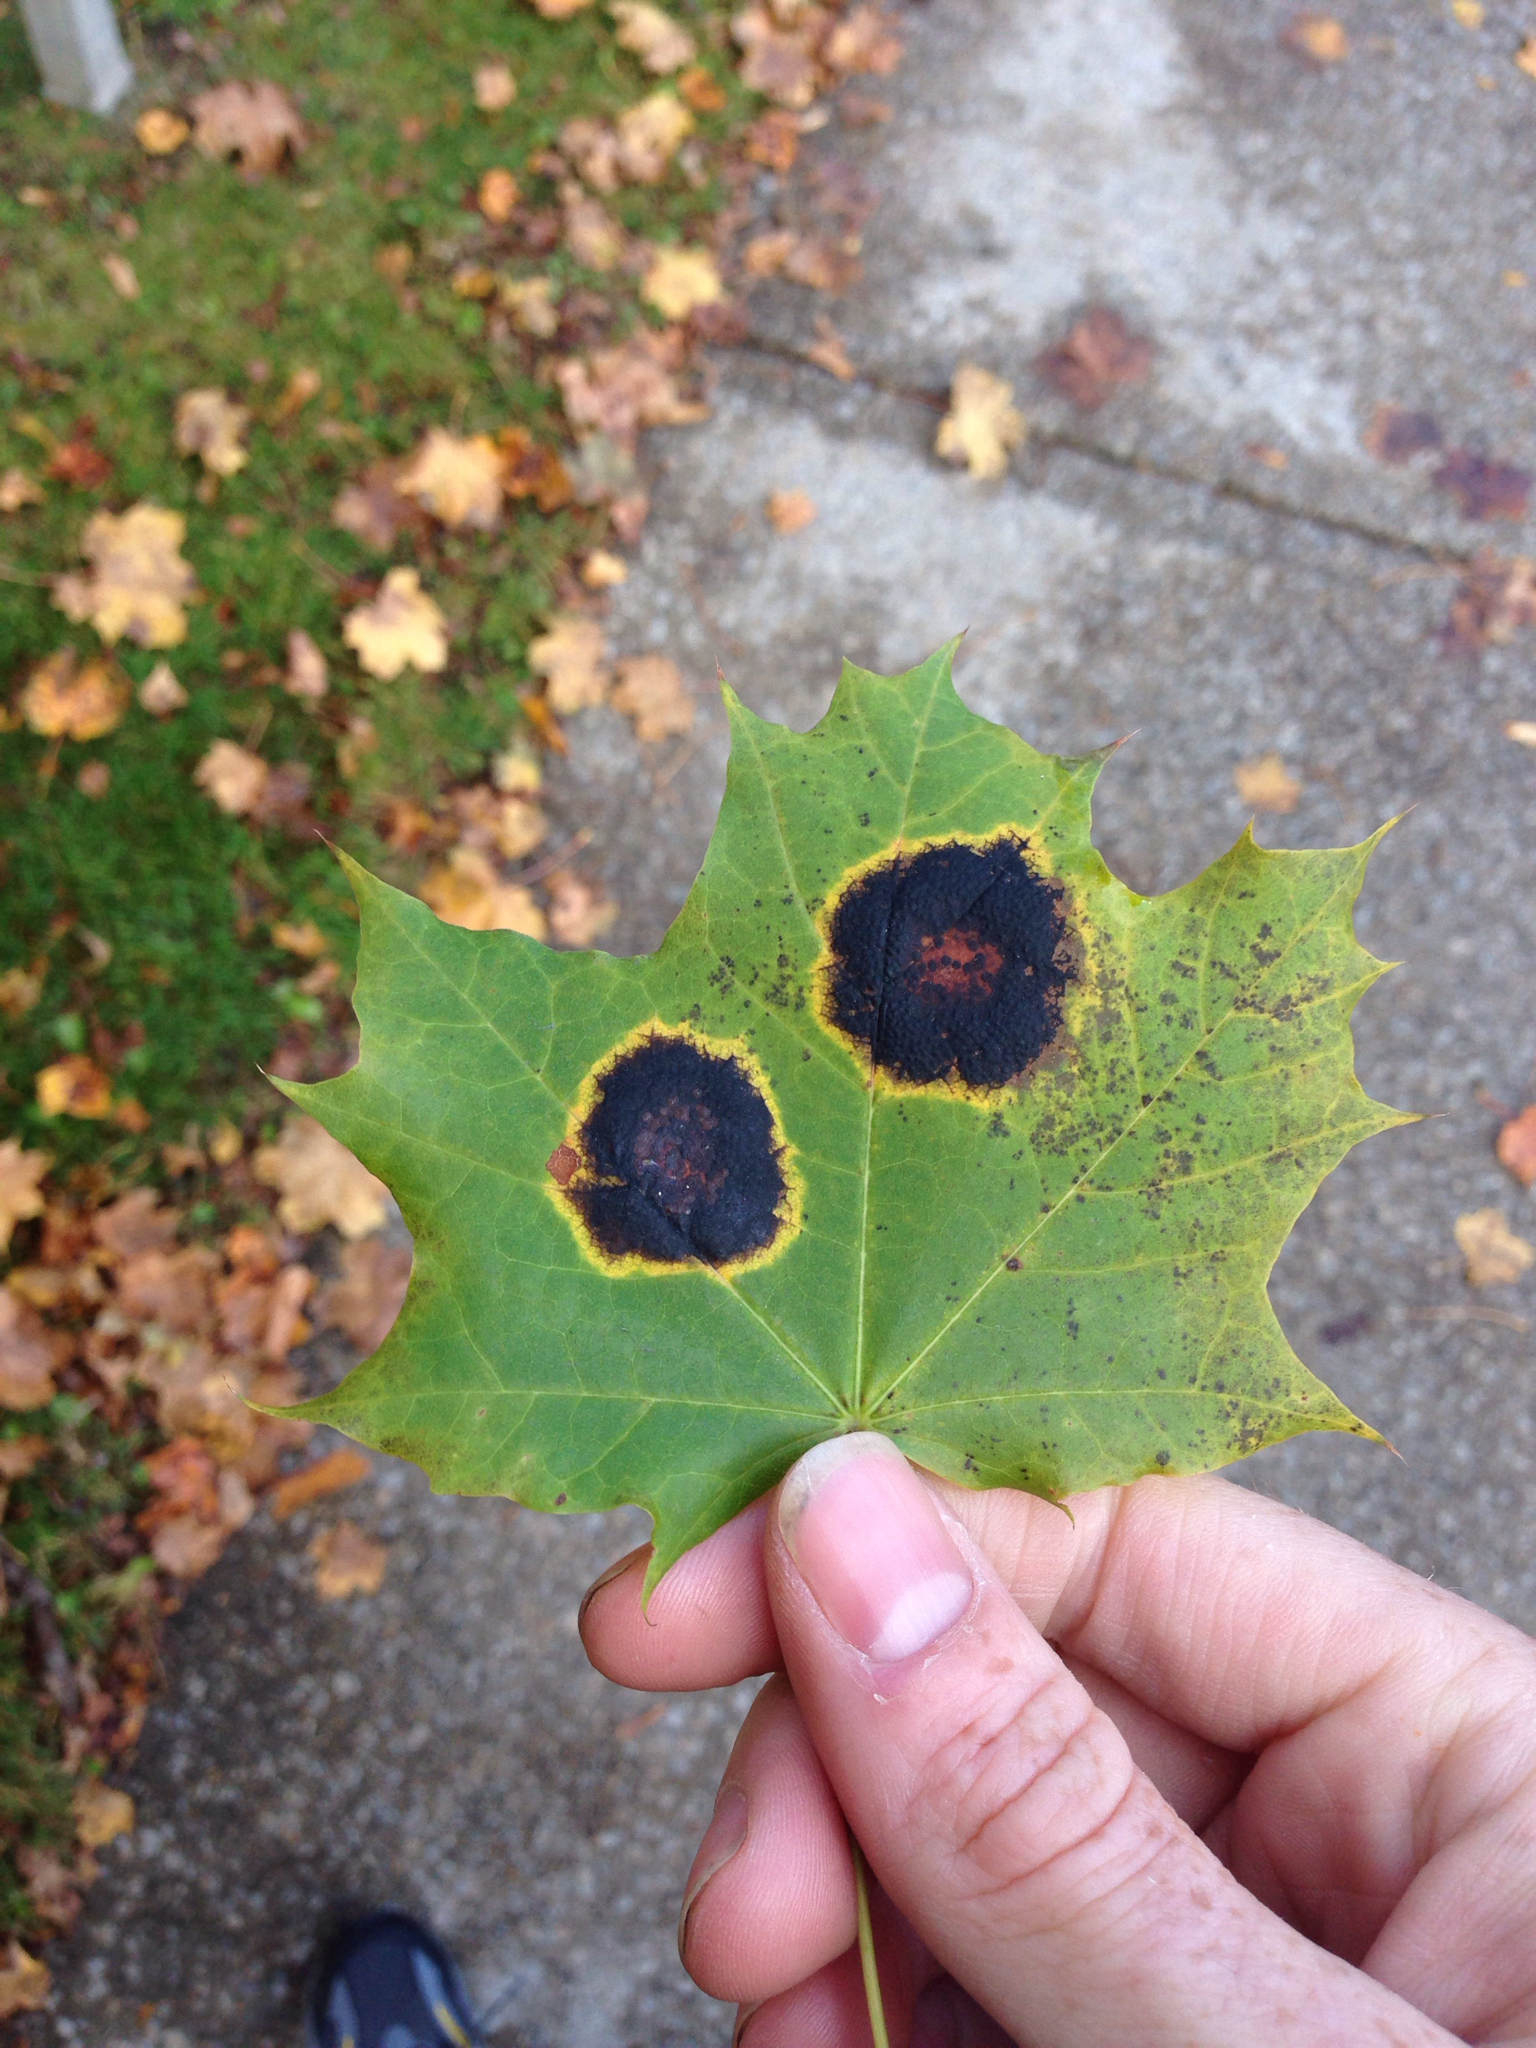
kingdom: Fungi
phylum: Ascomycota
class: Leotiomycetes
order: Rhytismatales
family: Rhytismataceae
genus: Rhytisma
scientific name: Rhytisma acerinum
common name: European tar spot
